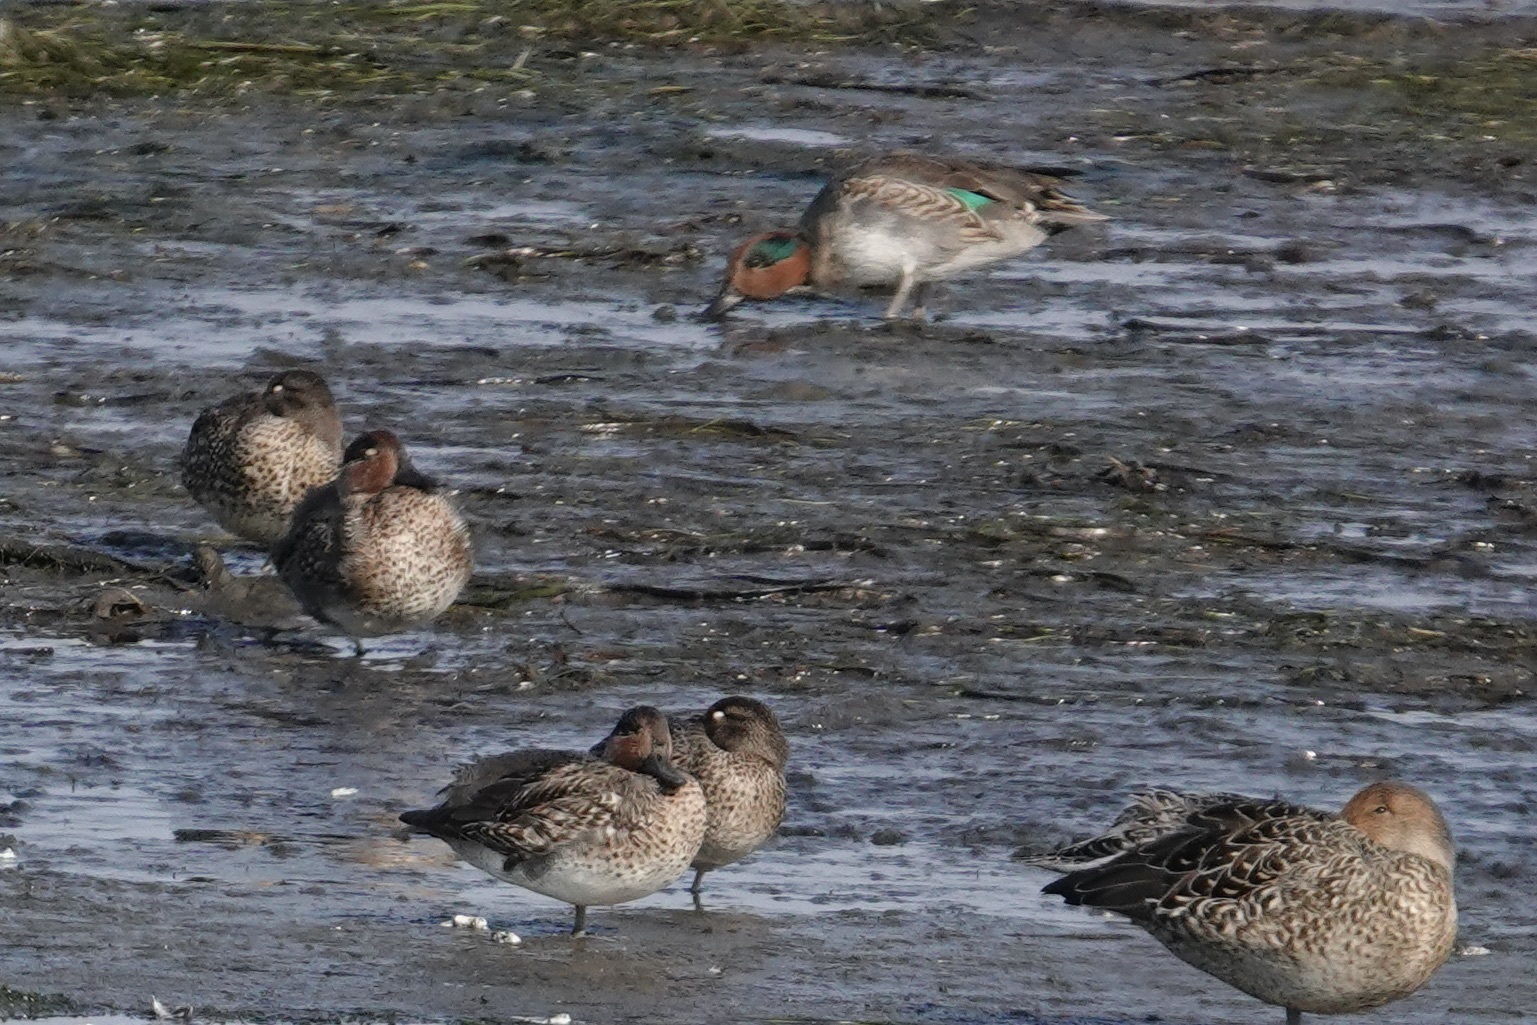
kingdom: Animalia
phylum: Chordata
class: Aves
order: Anseriformes
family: Anatidae
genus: Anas
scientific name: Anas crecca
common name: Eurasian teal
